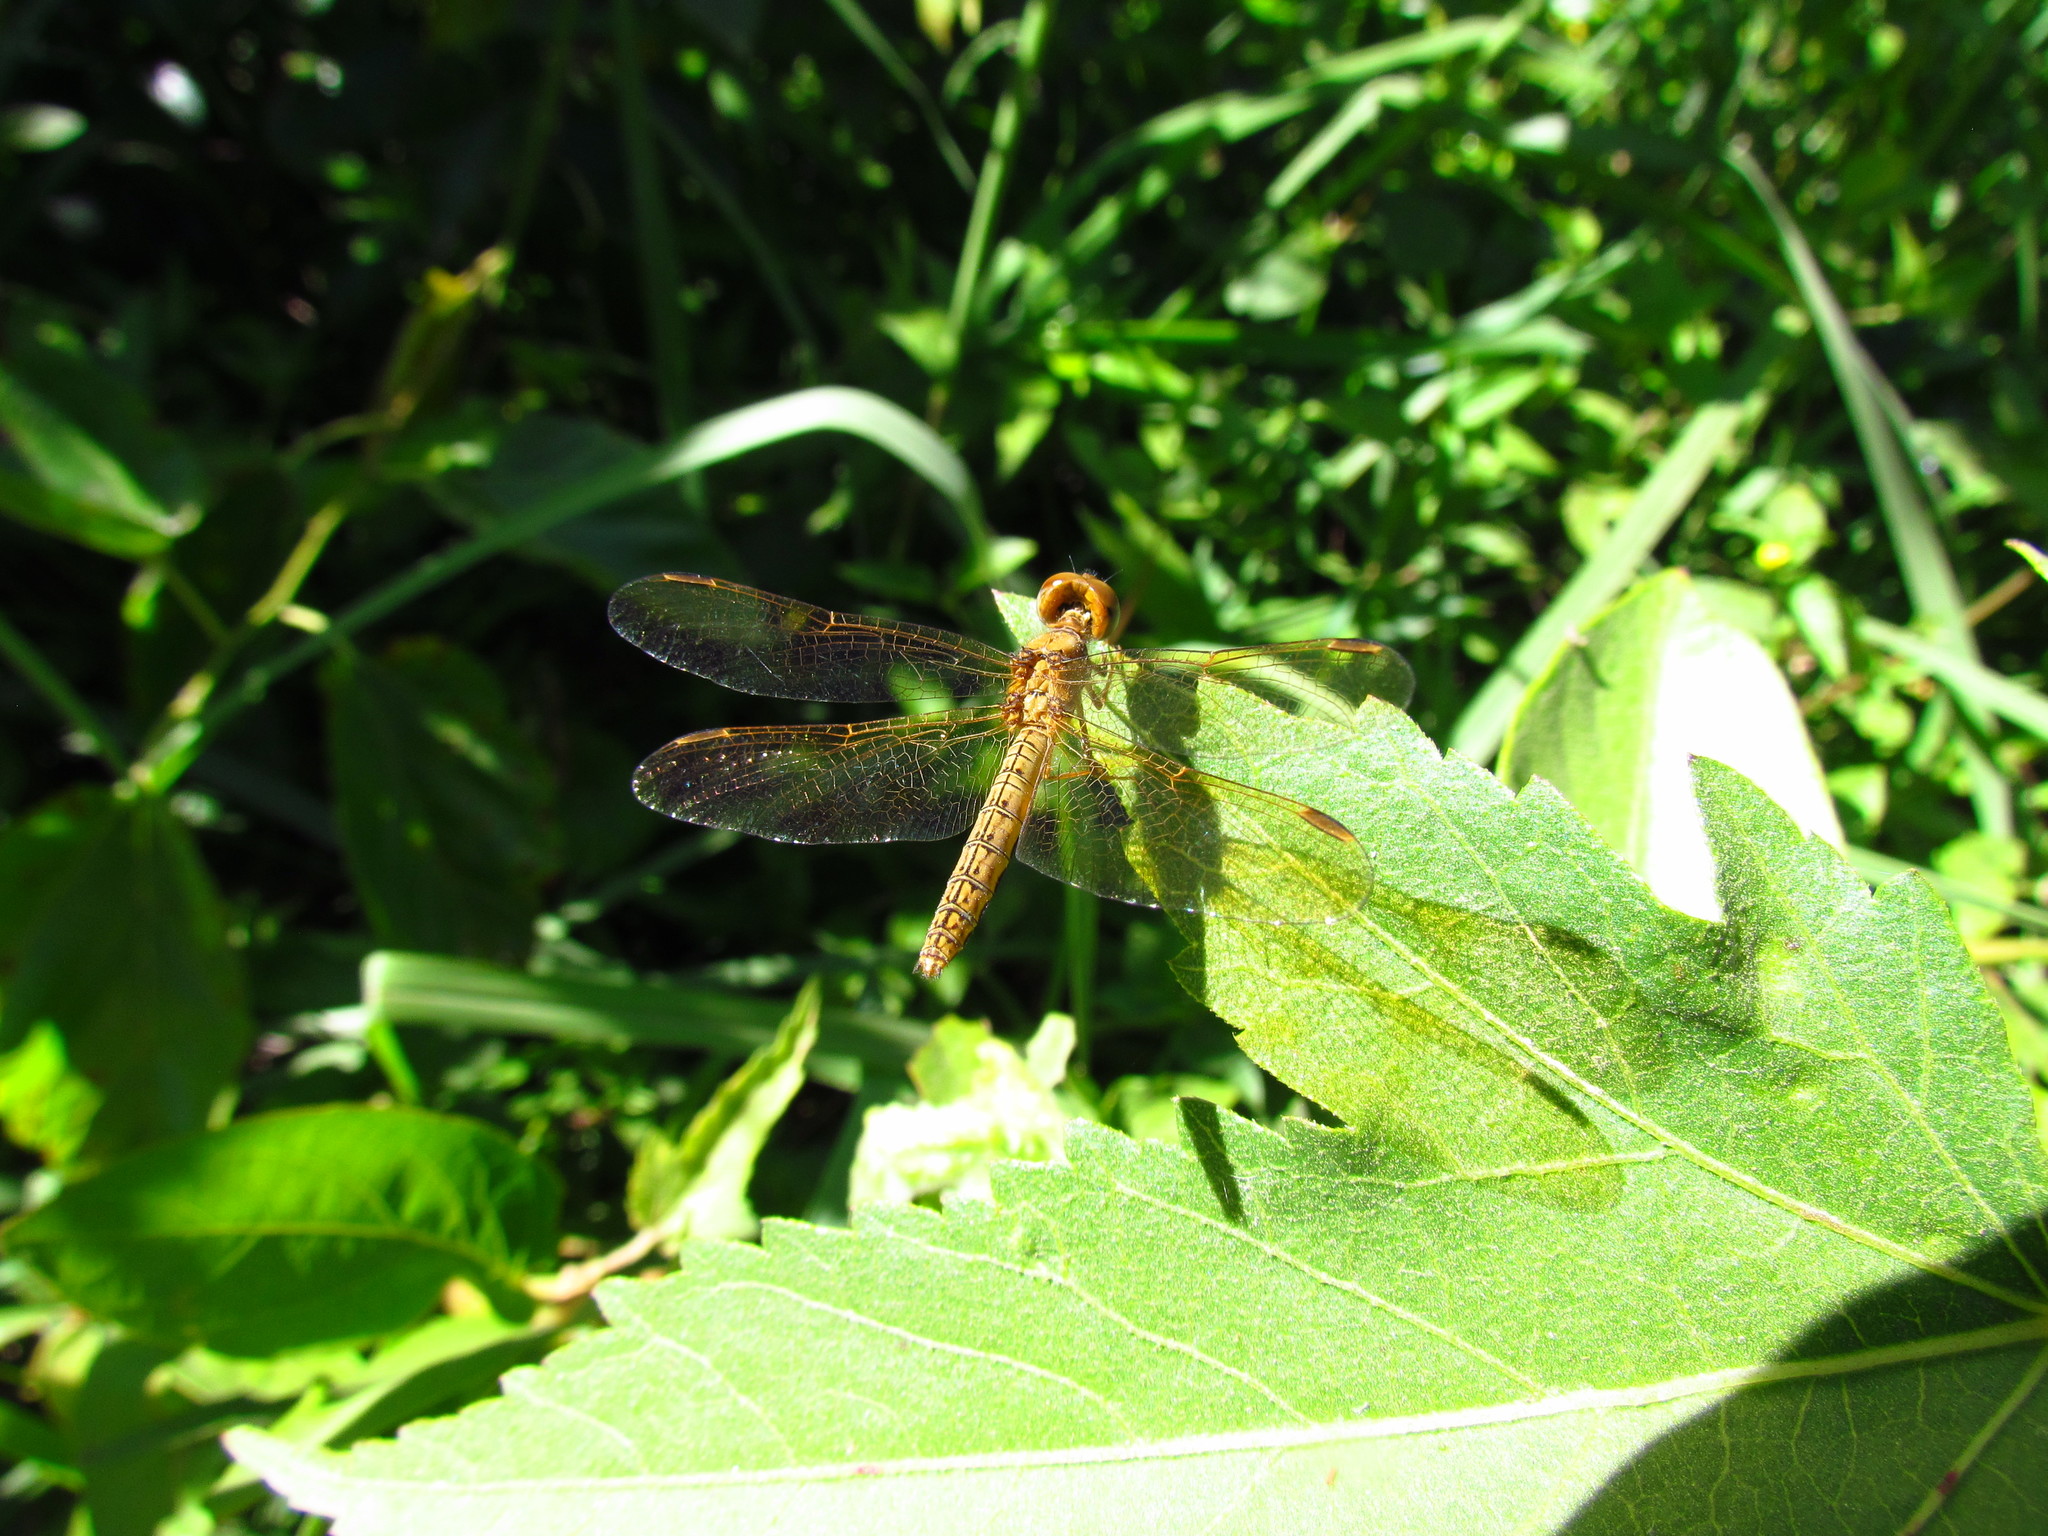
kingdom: Animalia
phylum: Arthropoda
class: Insecta
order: Odonata
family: Libellulidae
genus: Perithemis
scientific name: Perithemis icteroptera
